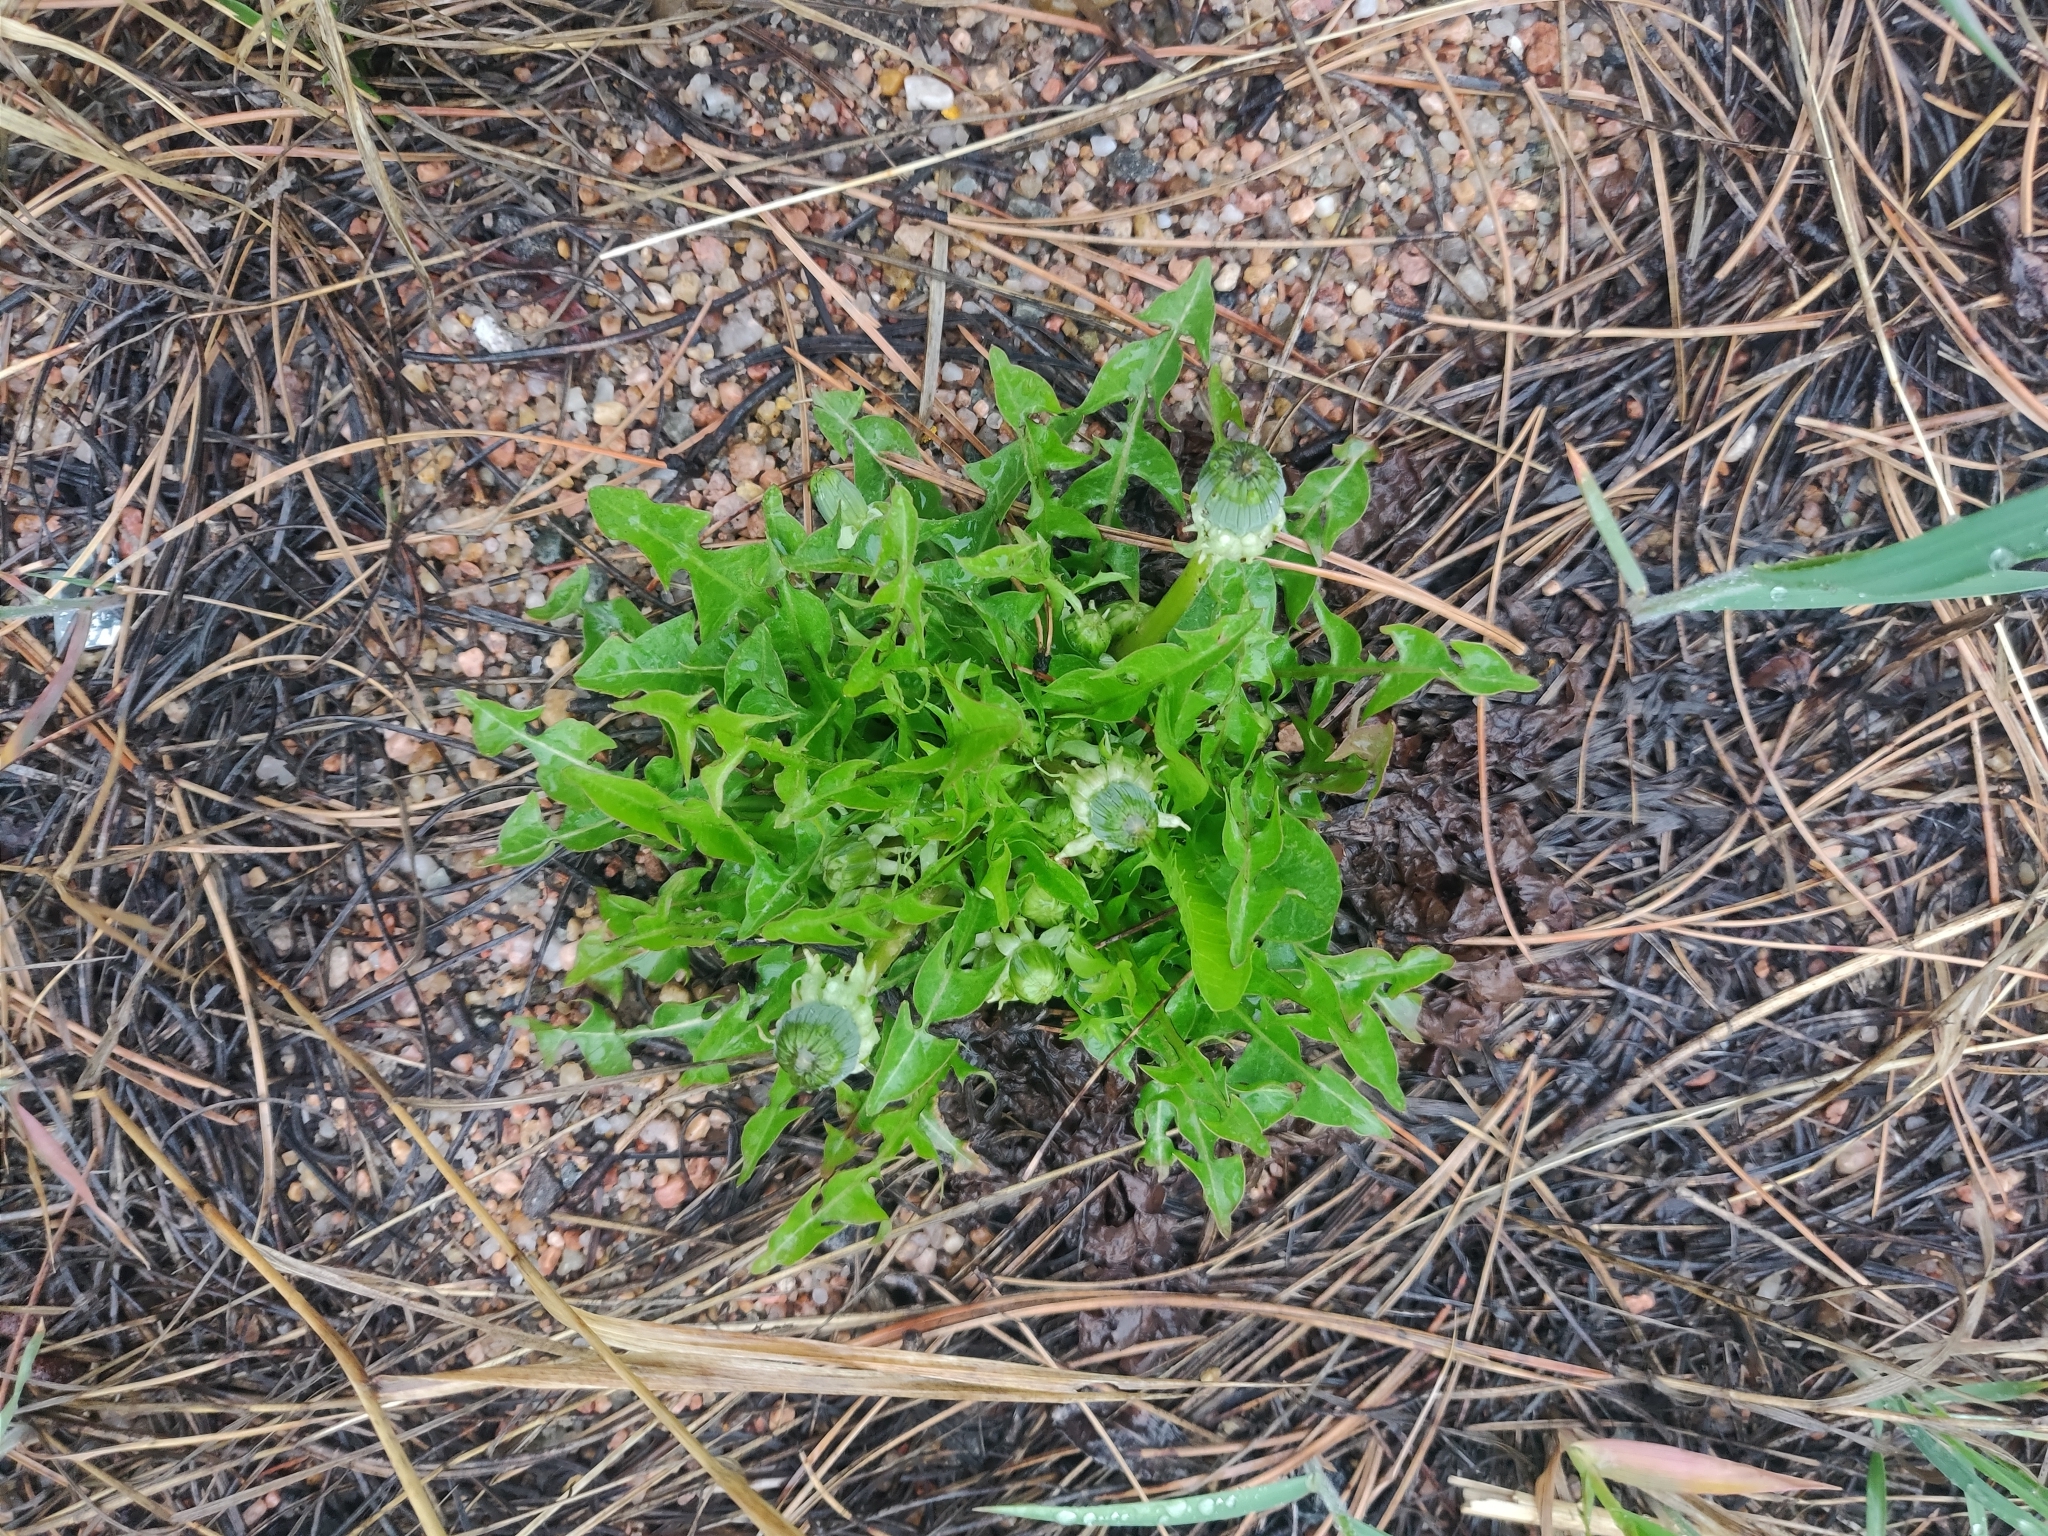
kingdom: Plantae
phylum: Tracheophyta
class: Magnoliopsida
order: Asterales
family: Asteraceae
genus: Taraxacum
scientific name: Taraxacum officinale
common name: Common dandelion
